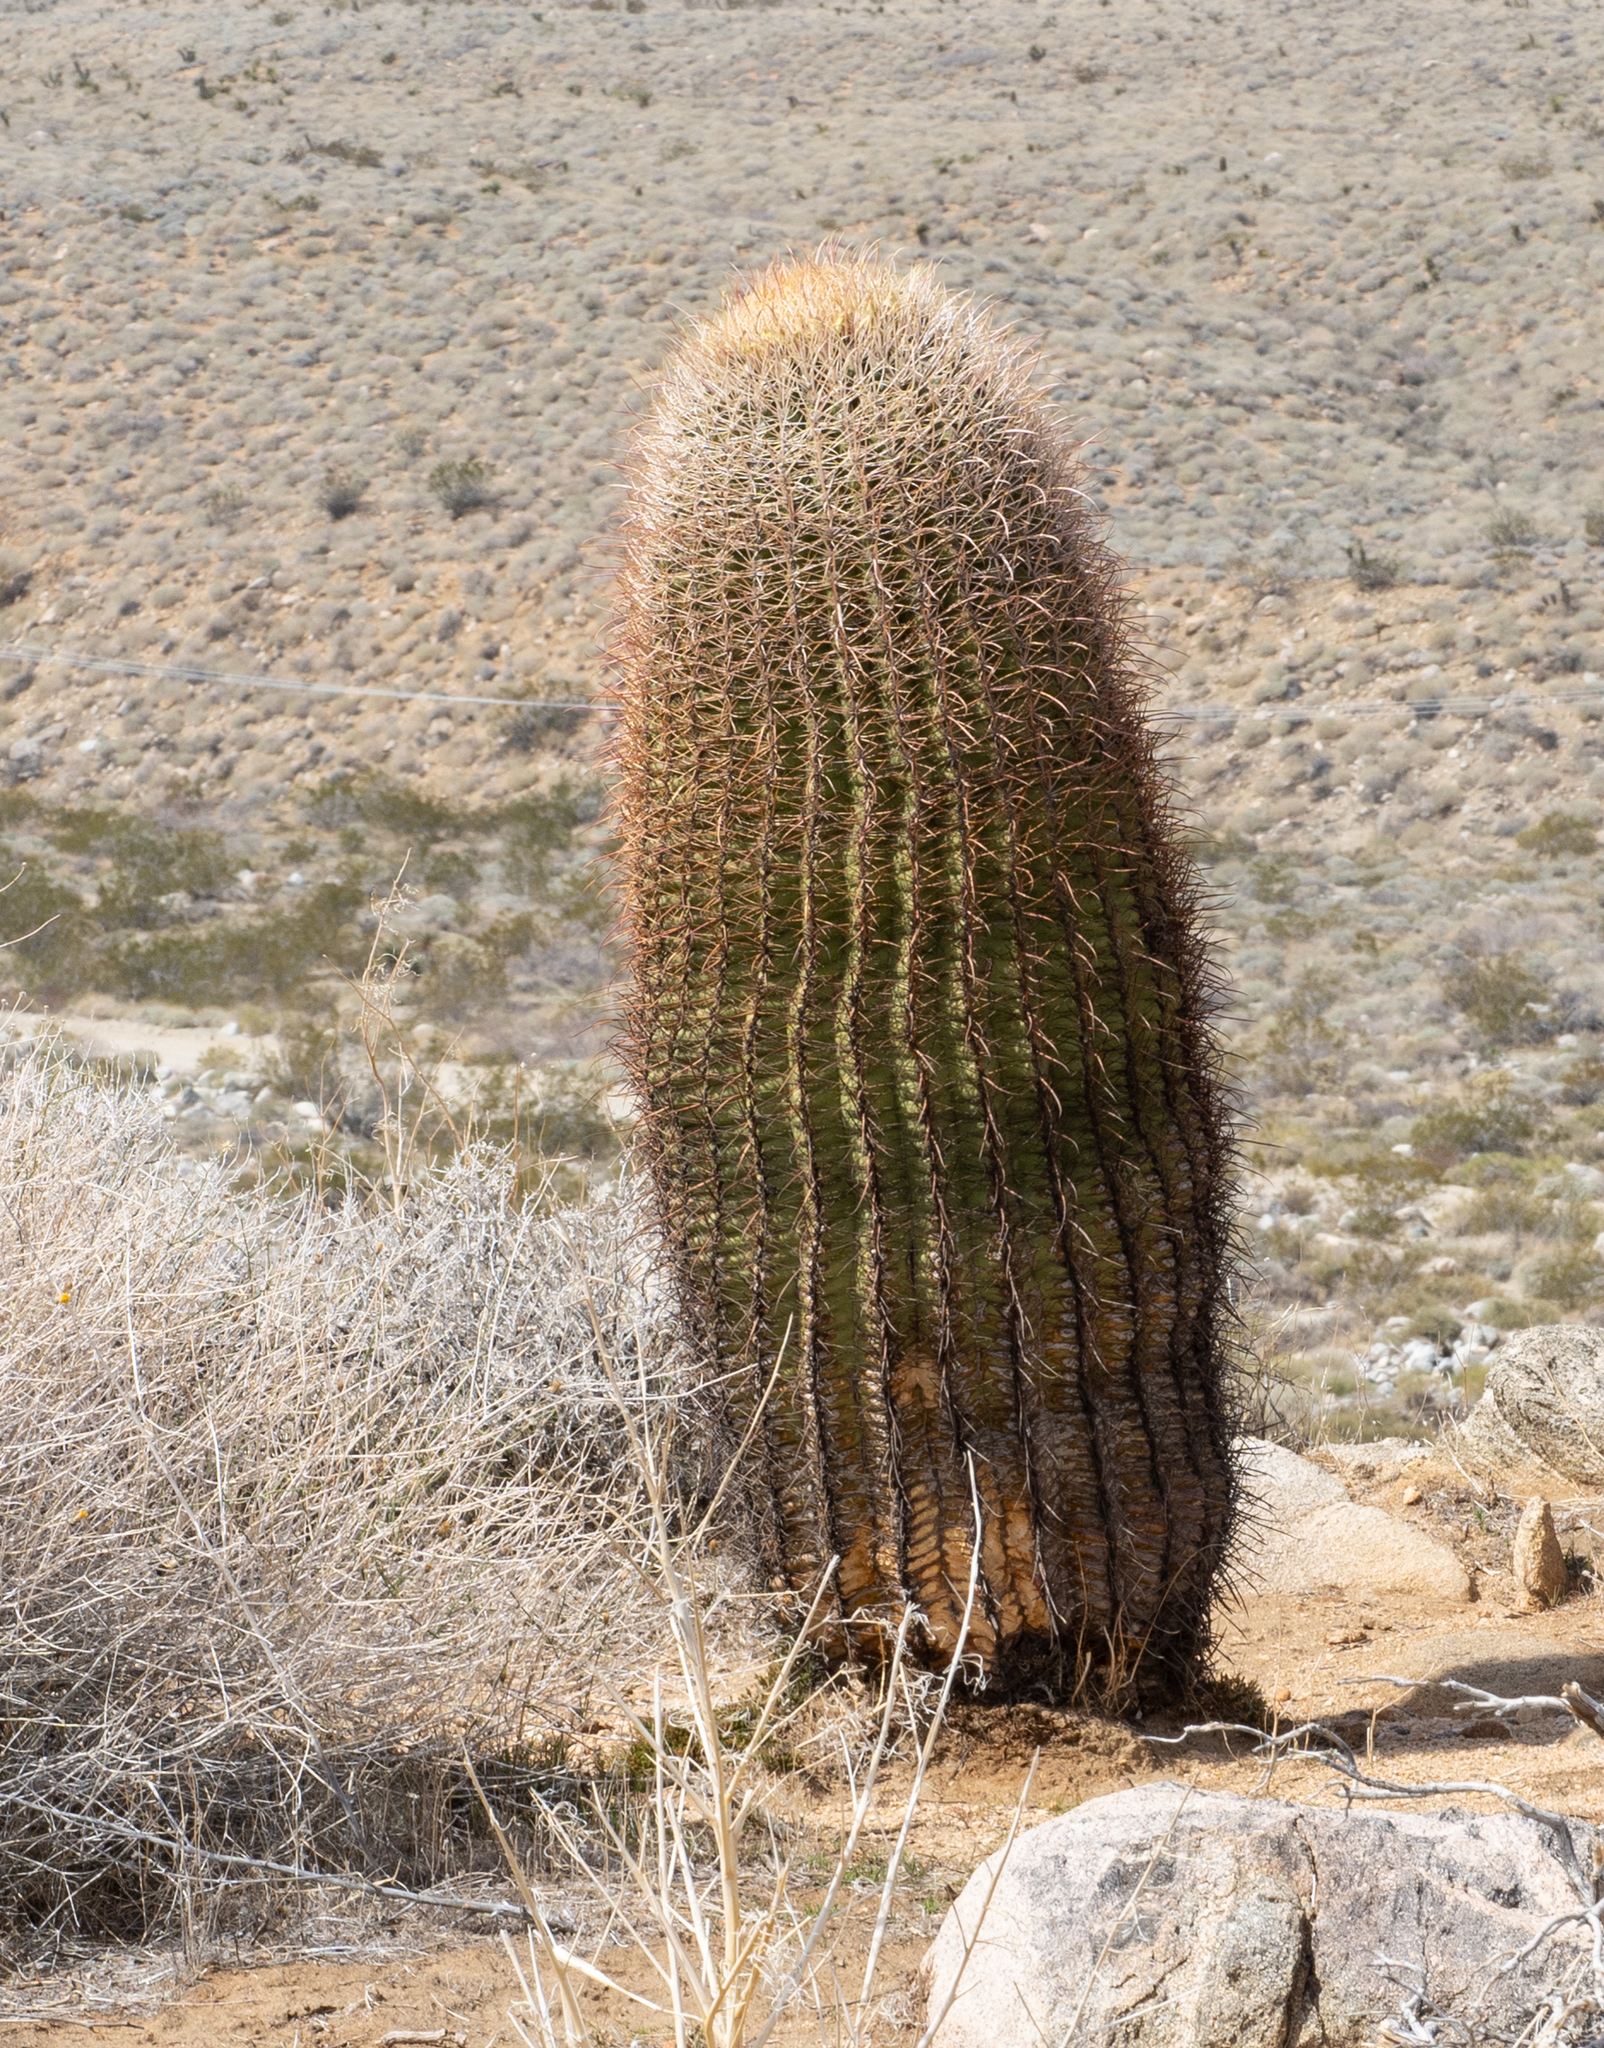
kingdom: Plantae
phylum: Tracheophyta
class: Magnoliopsida
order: Caryophyllales
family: Cactaceae
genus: Ferocactus
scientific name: Ferocactus cylindraceus
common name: California barrel cactus
